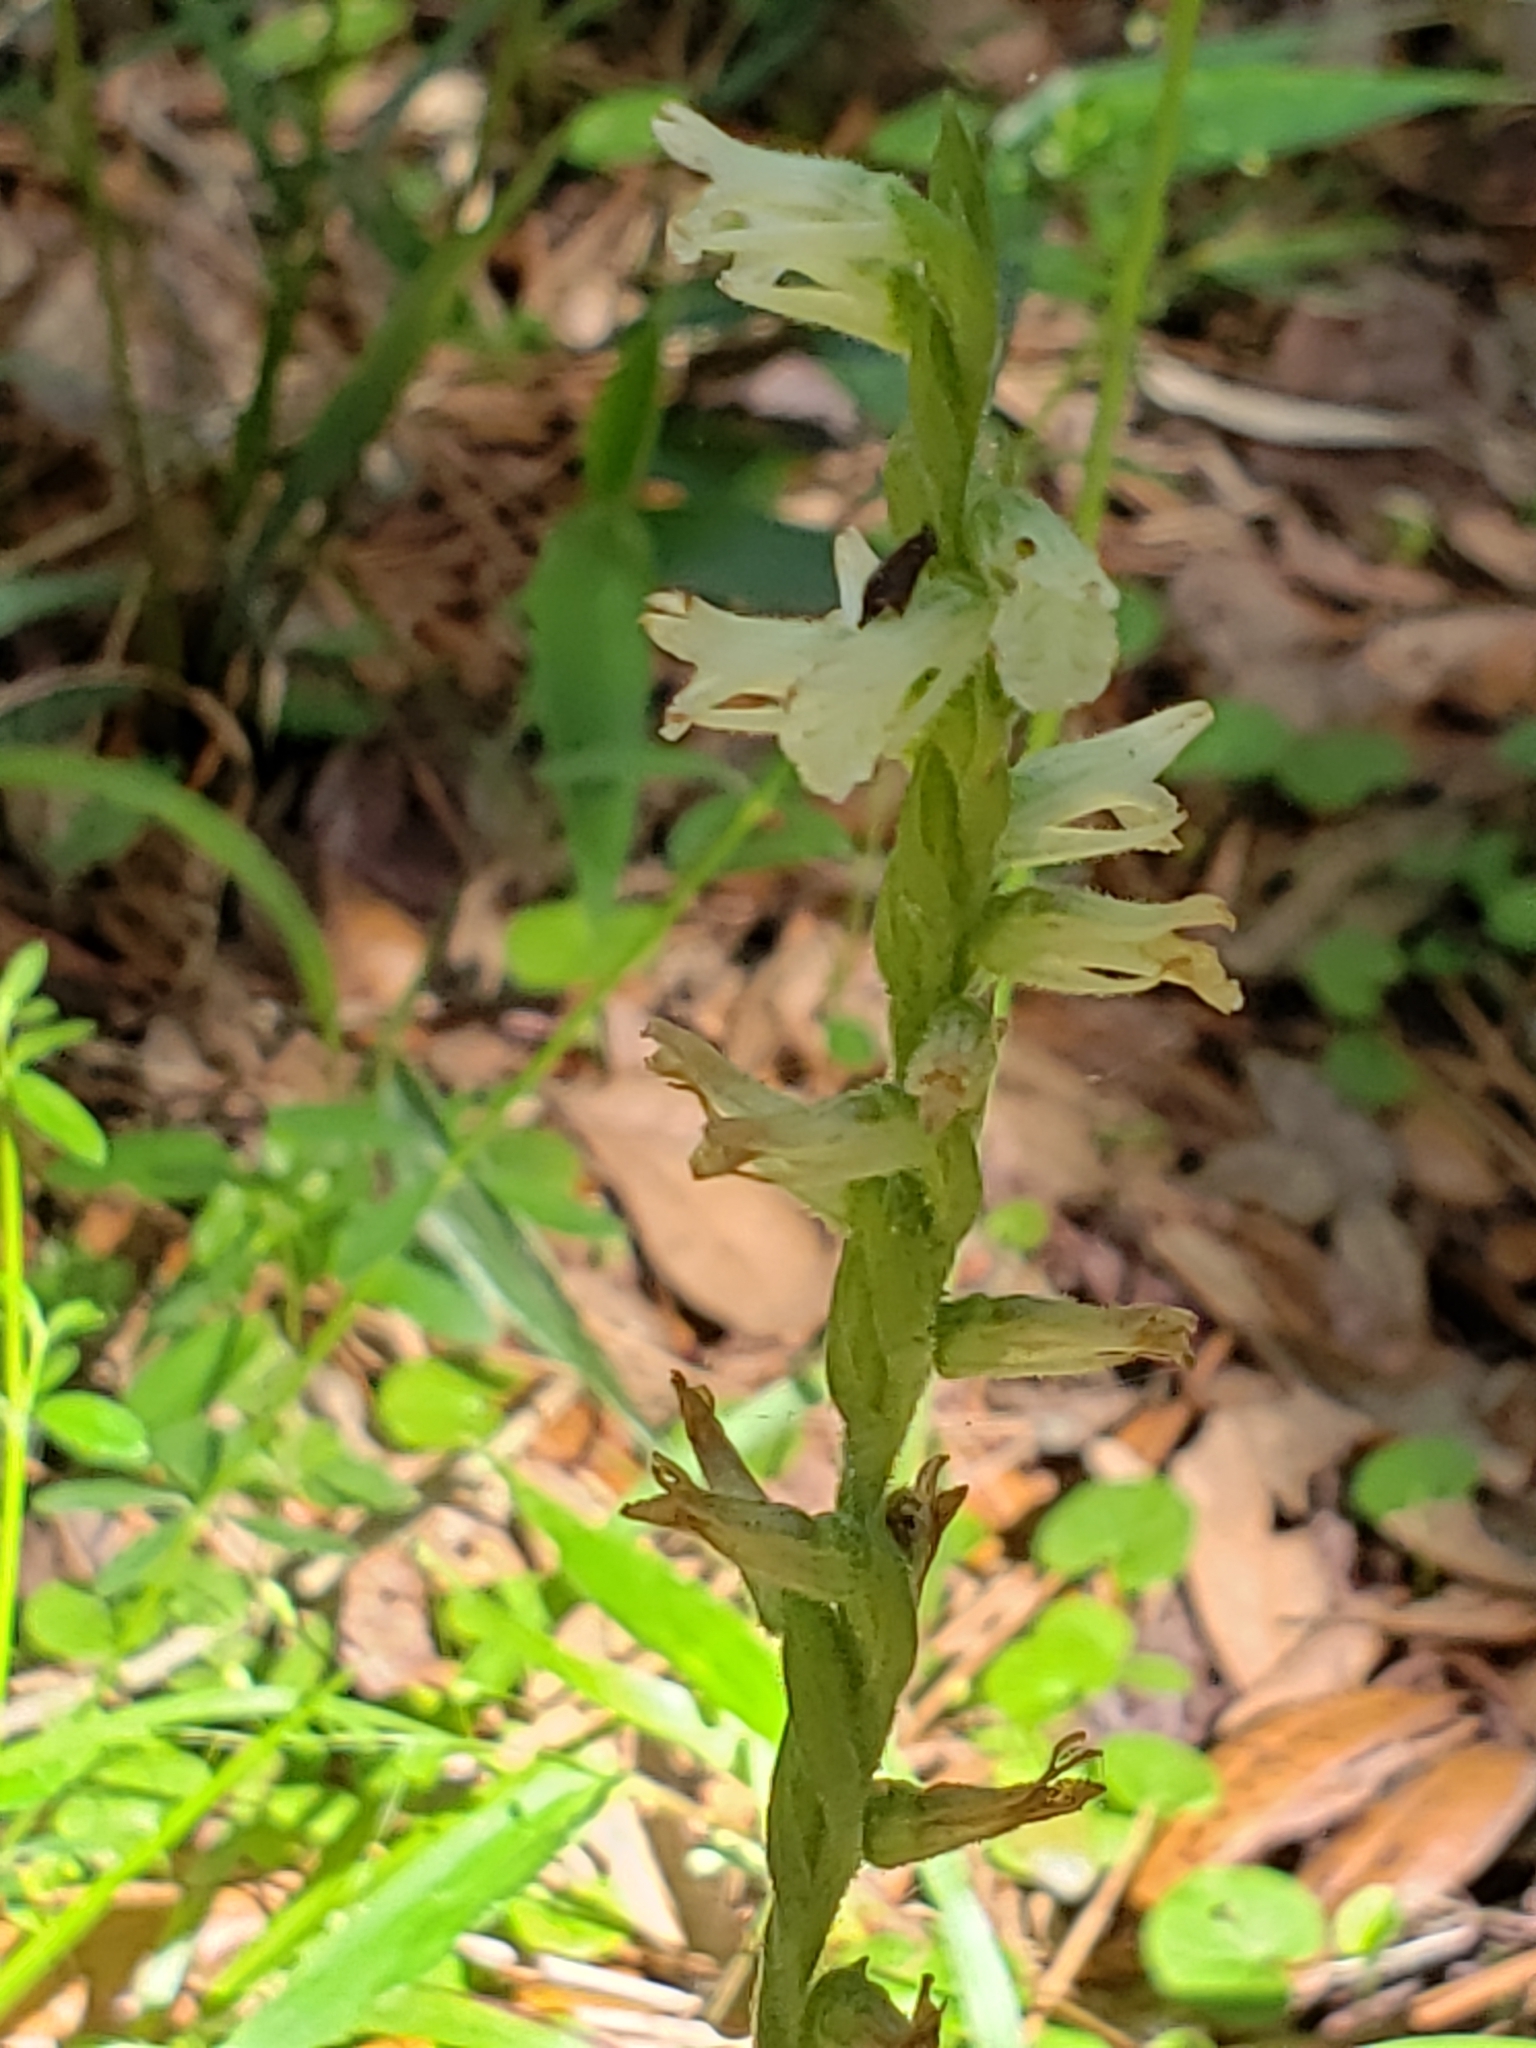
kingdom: Plantae
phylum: Tracheophyta
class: Liliopsida
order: Asparagales
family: Orchidaceae
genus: Spiranthes
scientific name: Spiranthes praecox
